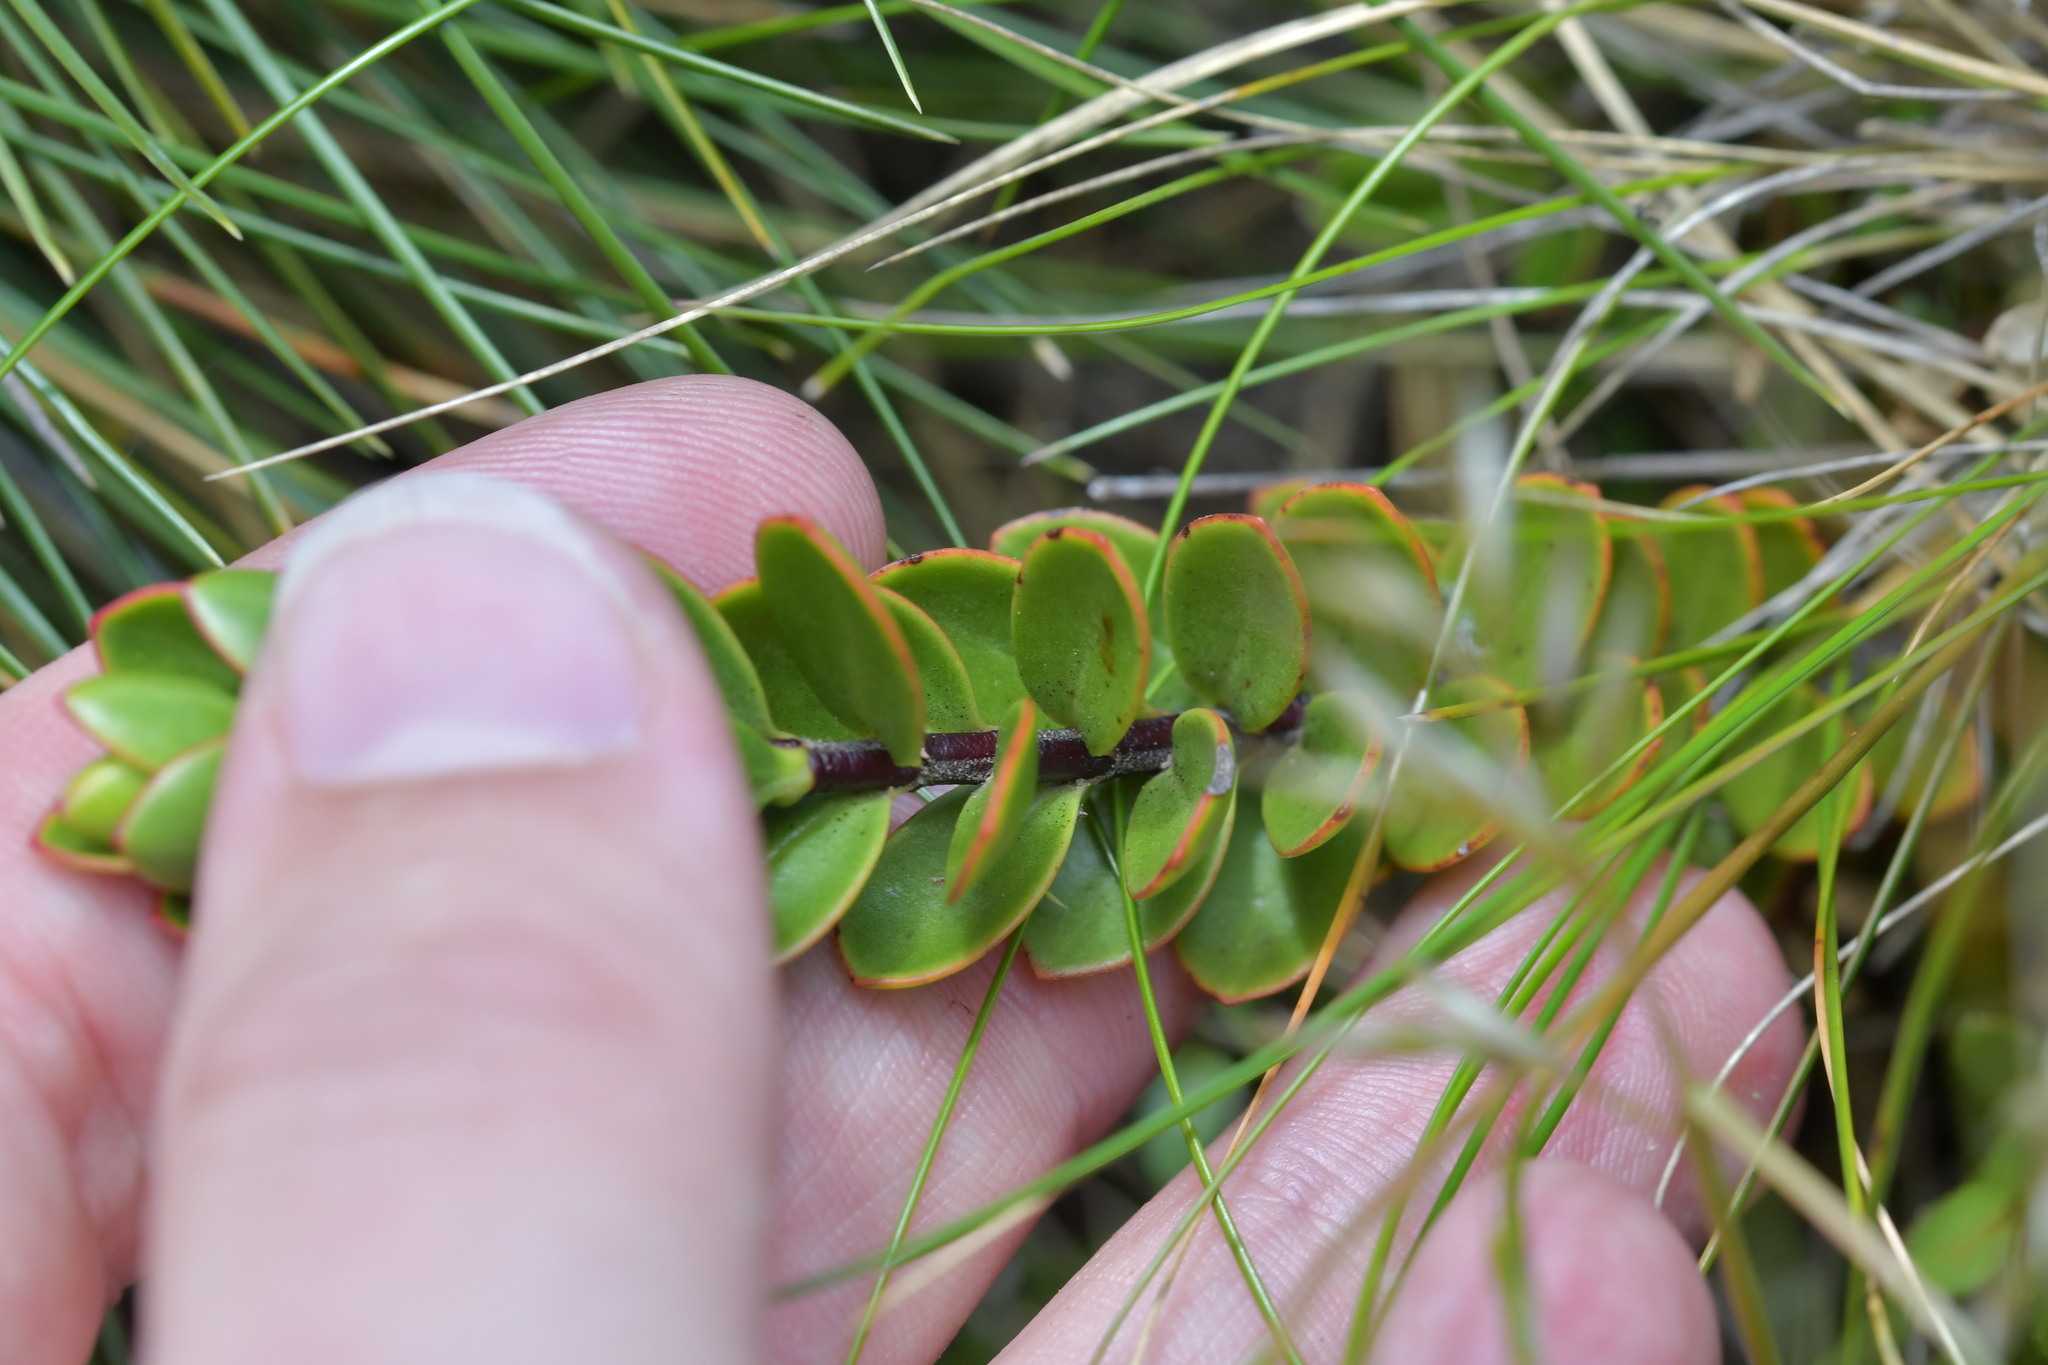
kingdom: Plantae
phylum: Tracheophyta
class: Magnoliopsida
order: Lamiales
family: Plantaginaceae
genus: Veronica
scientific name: Veronica decumbens
